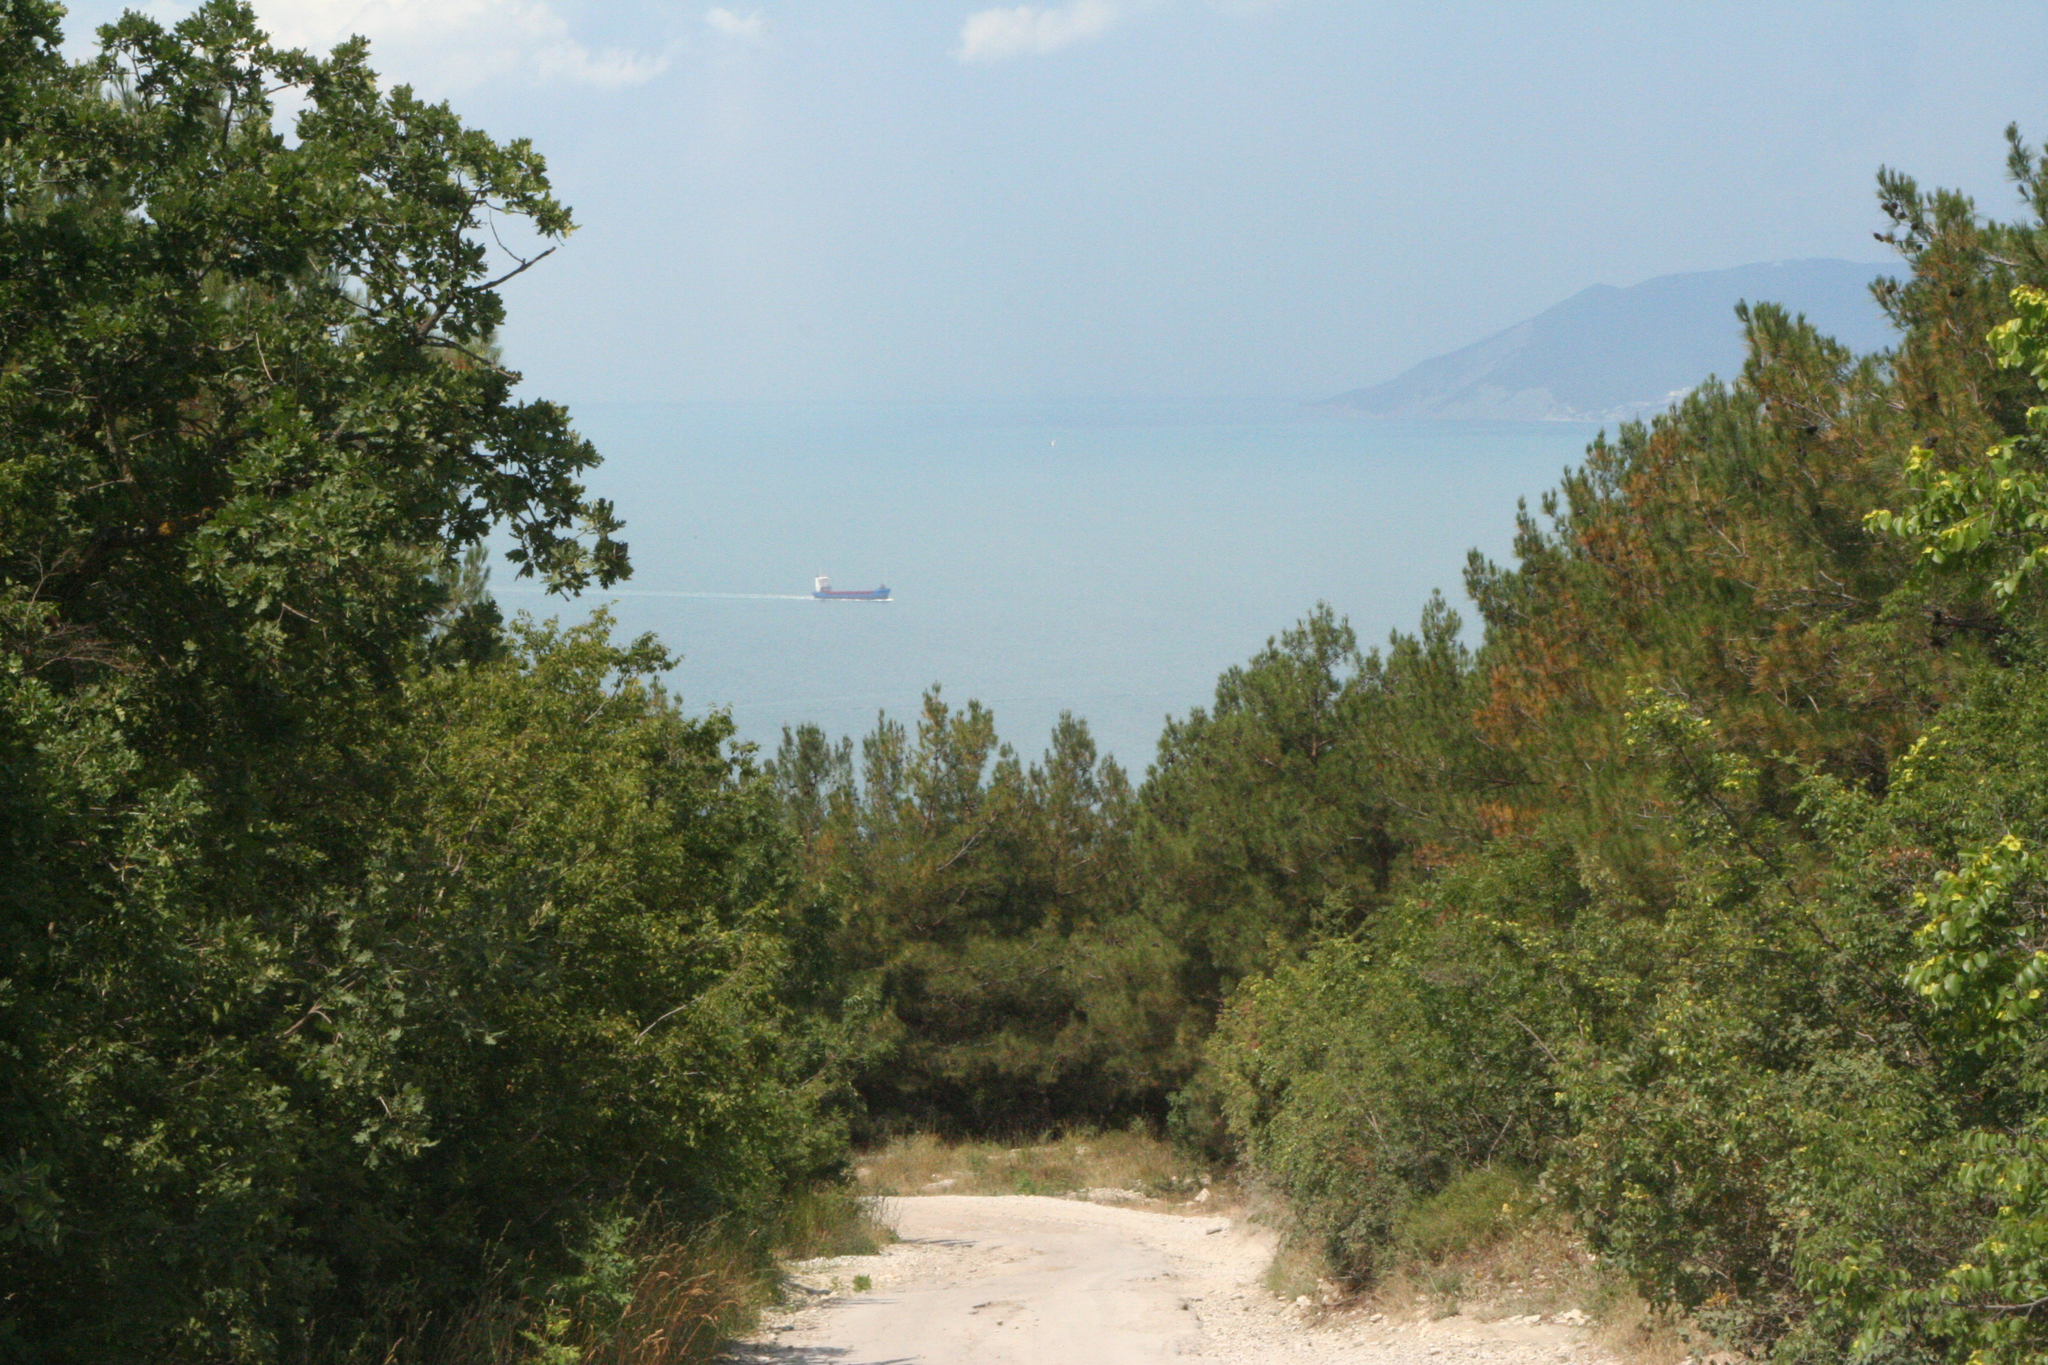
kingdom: Plantae
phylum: Tracheophyta
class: Magnoliopsida
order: Fagales
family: Fagaceae
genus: Quercus
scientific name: Quercus pubescens
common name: Downy oak
